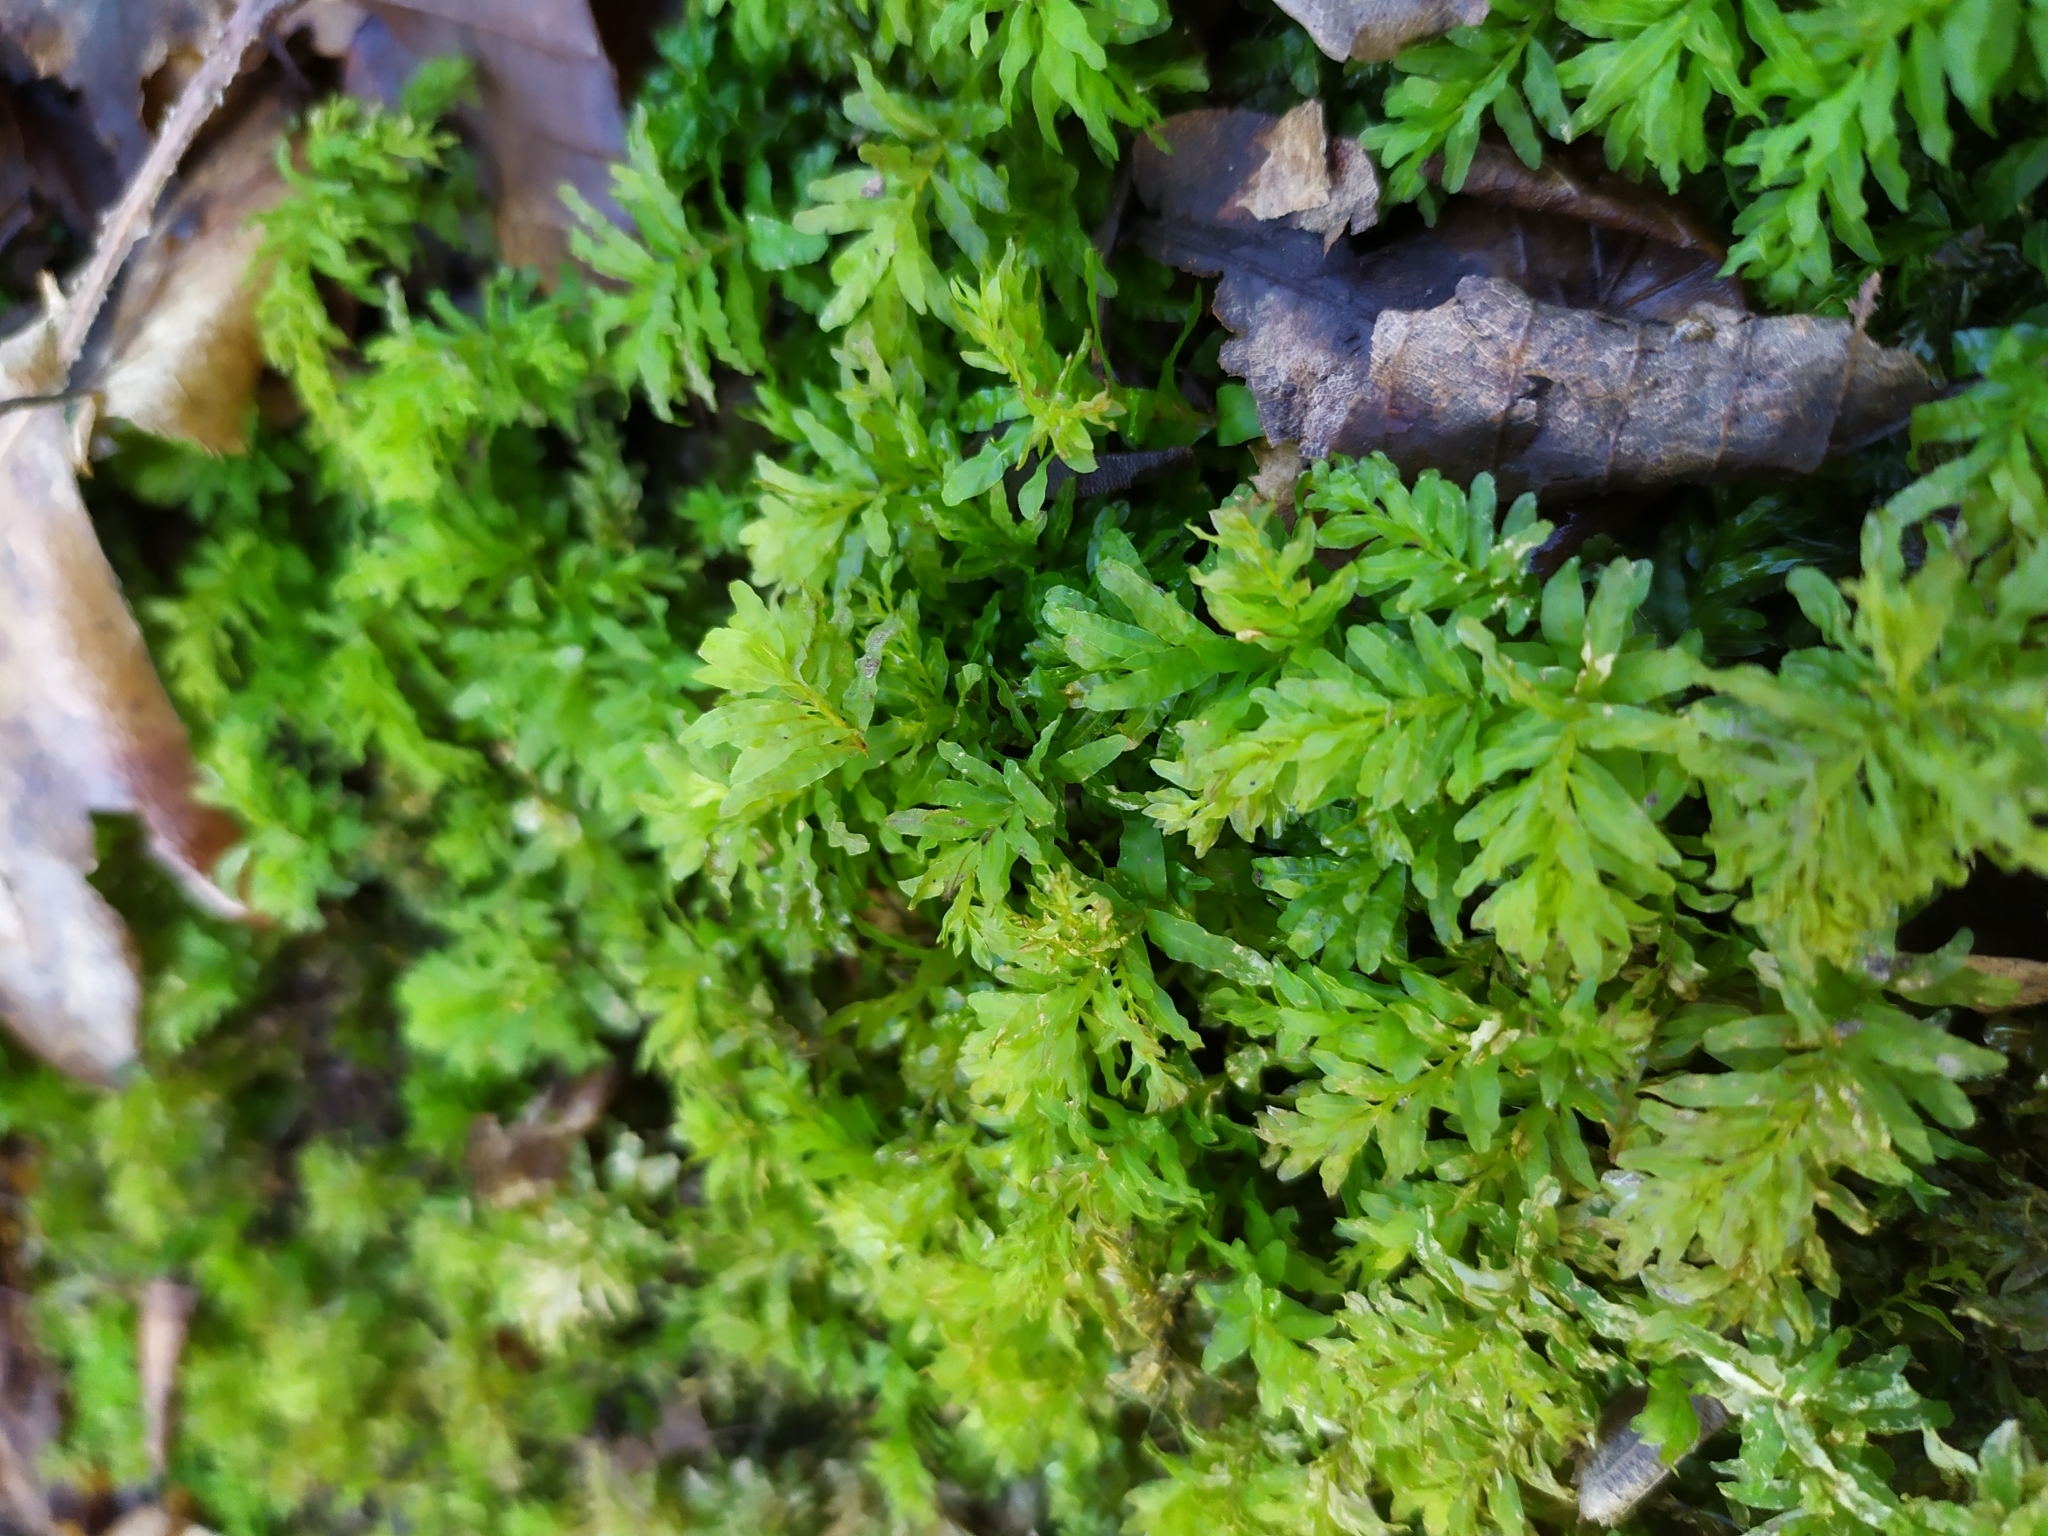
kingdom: Plantae
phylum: Bryophyta
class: Bryopsida
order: Bryales
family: Mniaceae
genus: Plagiomnium
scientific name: Plagiomnium undulatum
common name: Hart's-tongue thyme-moss
